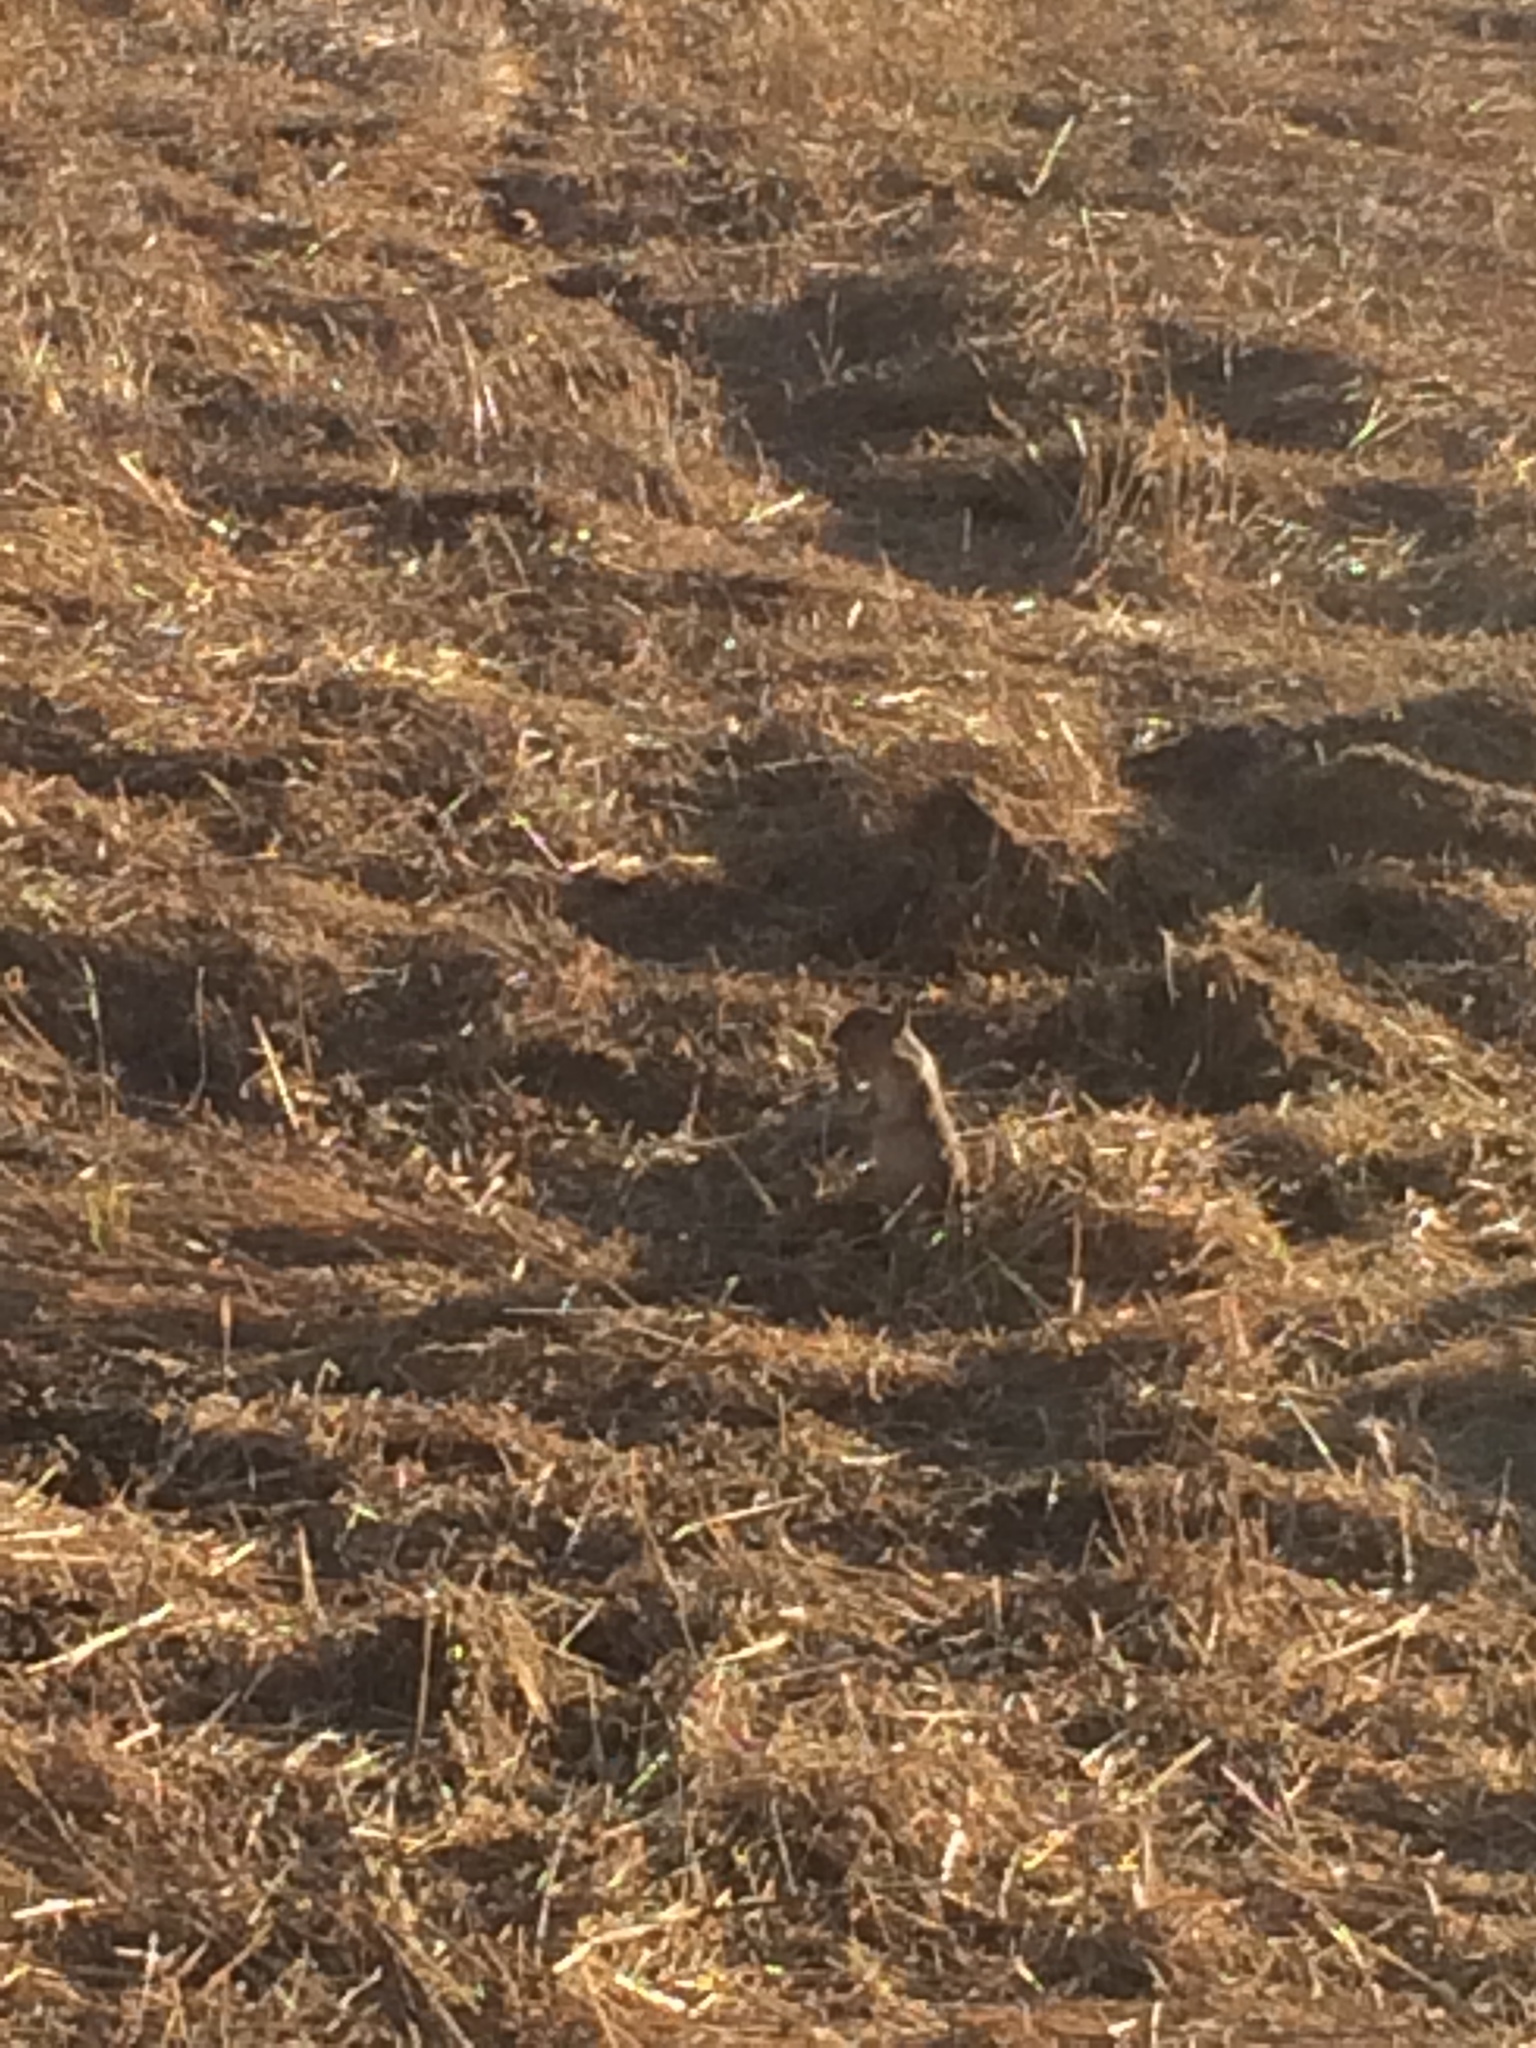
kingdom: Animalia
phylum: Chordata
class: Mammalia
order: Rodentia
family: Sciuridae
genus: Otospermophilus
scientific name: Otospermophilus beecheyi
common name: California ground squirrel
